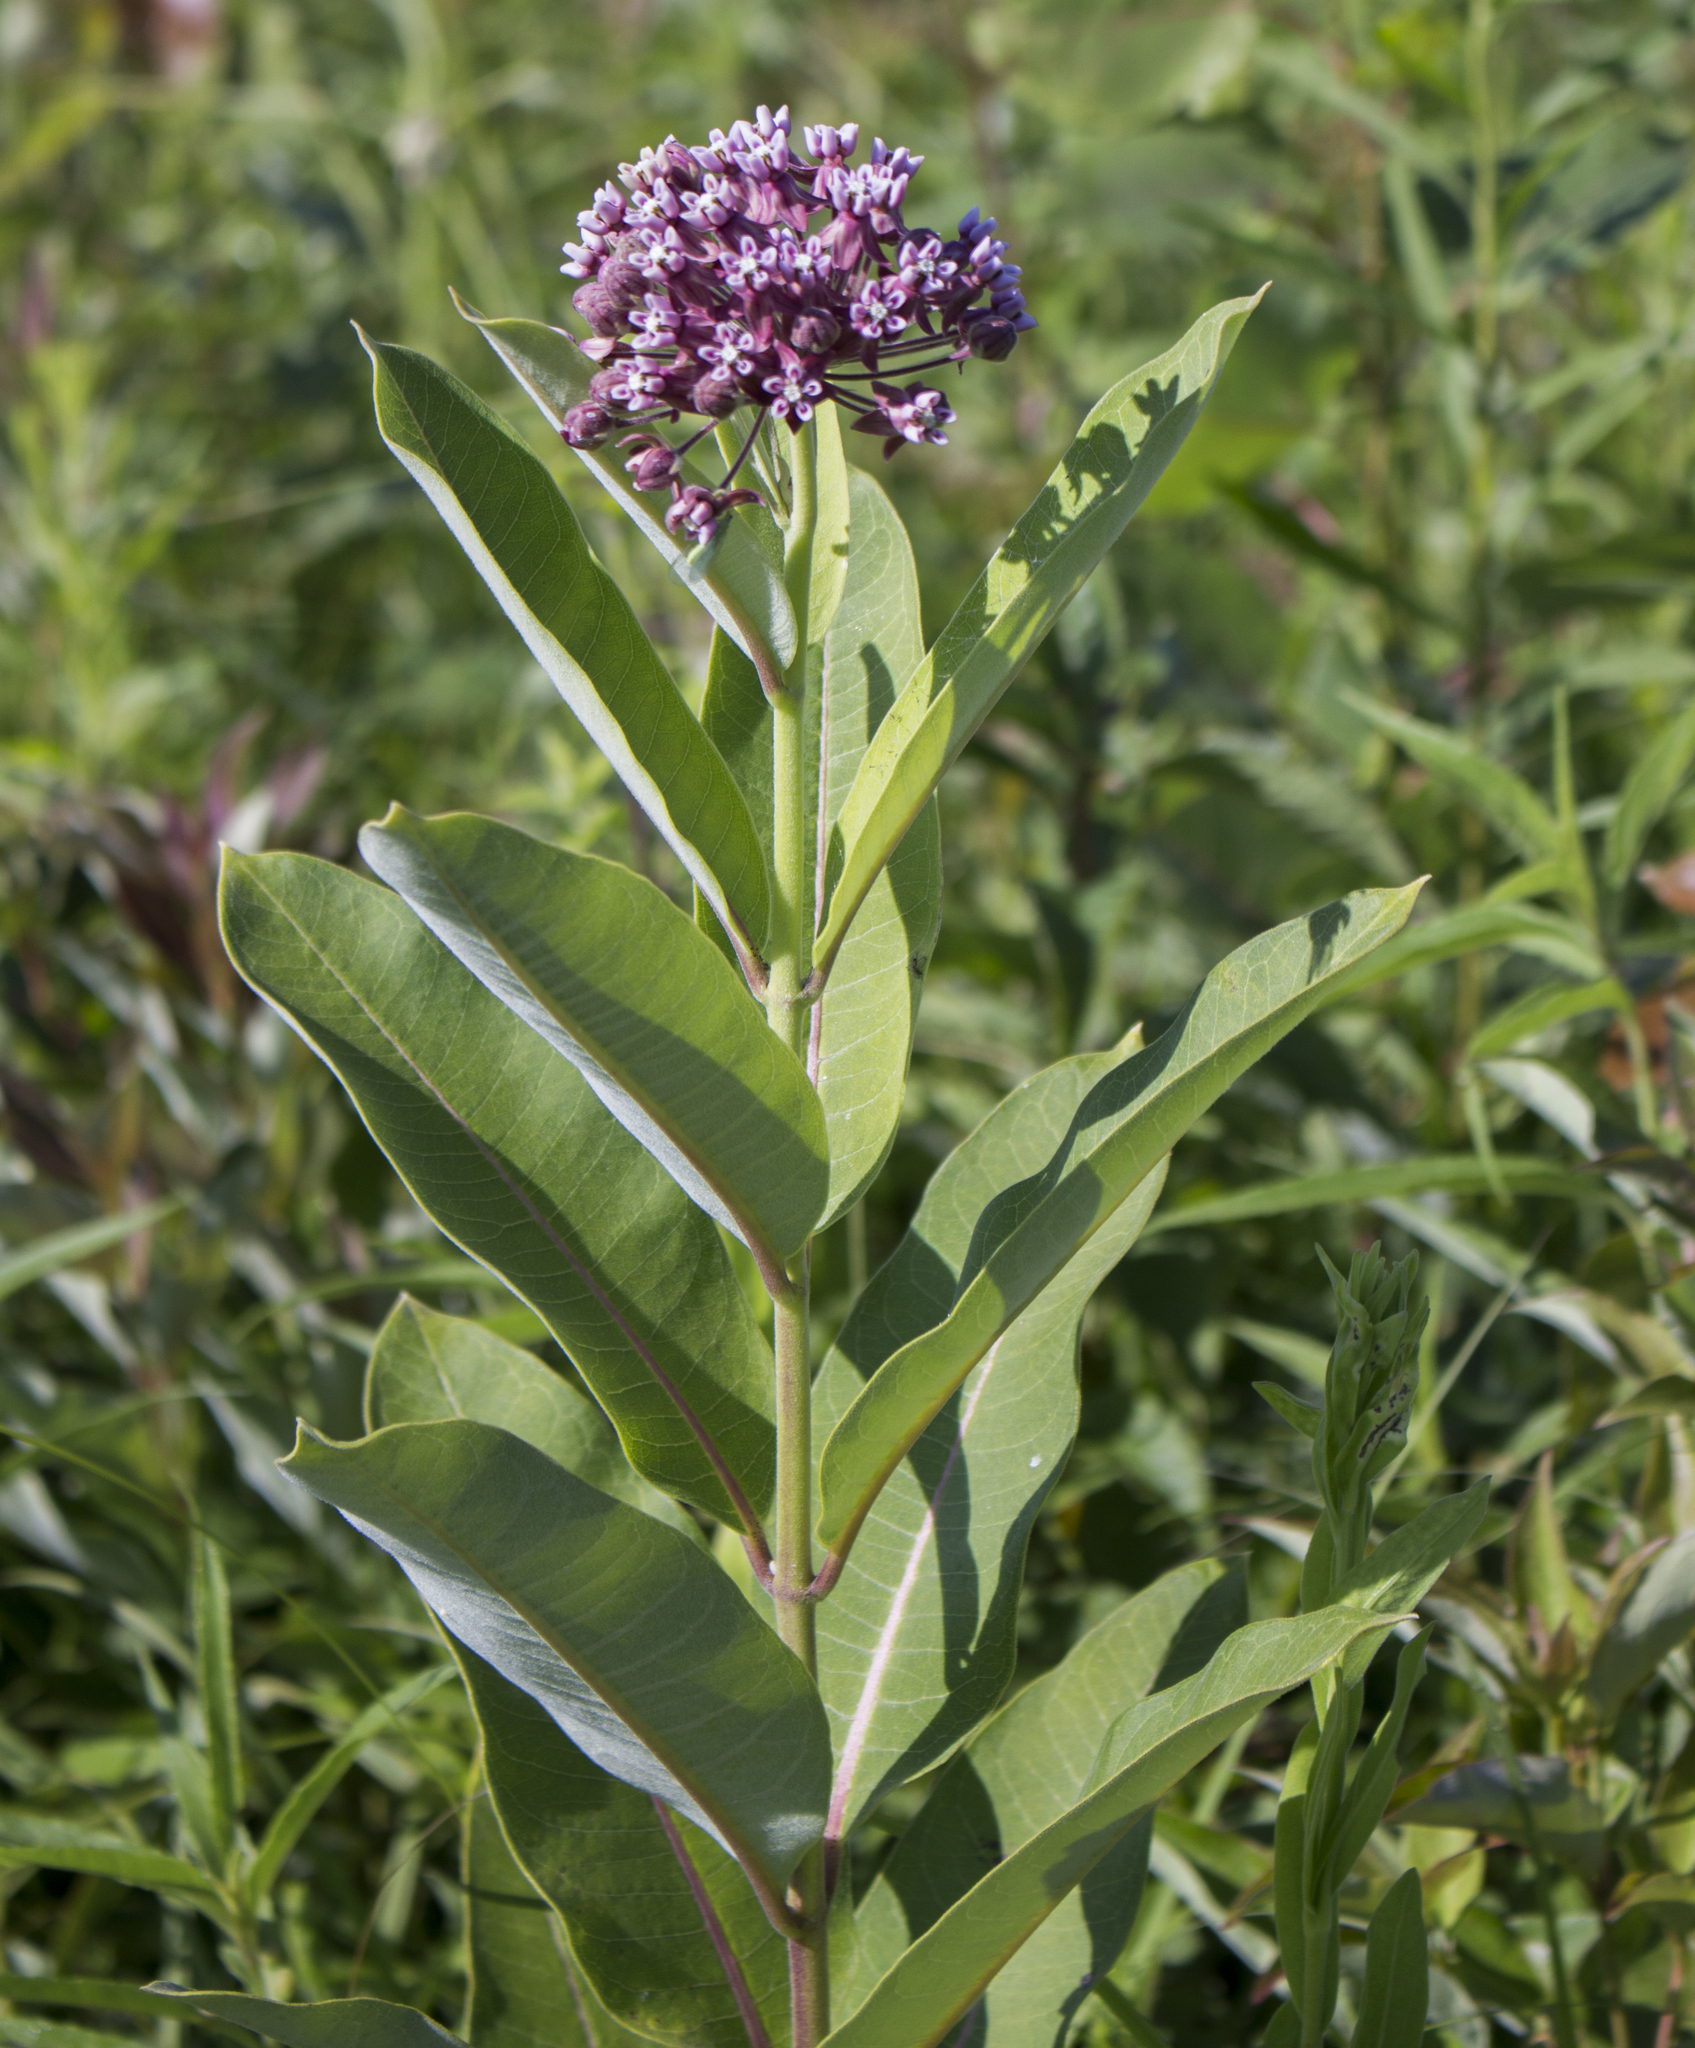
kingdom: Plantae
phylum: Tracheophyta
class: Magnoliopsida
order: Gentianales
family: Apocynaceae
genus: Asclepias
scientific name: Asclepias syriaca
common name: Common milkweed
